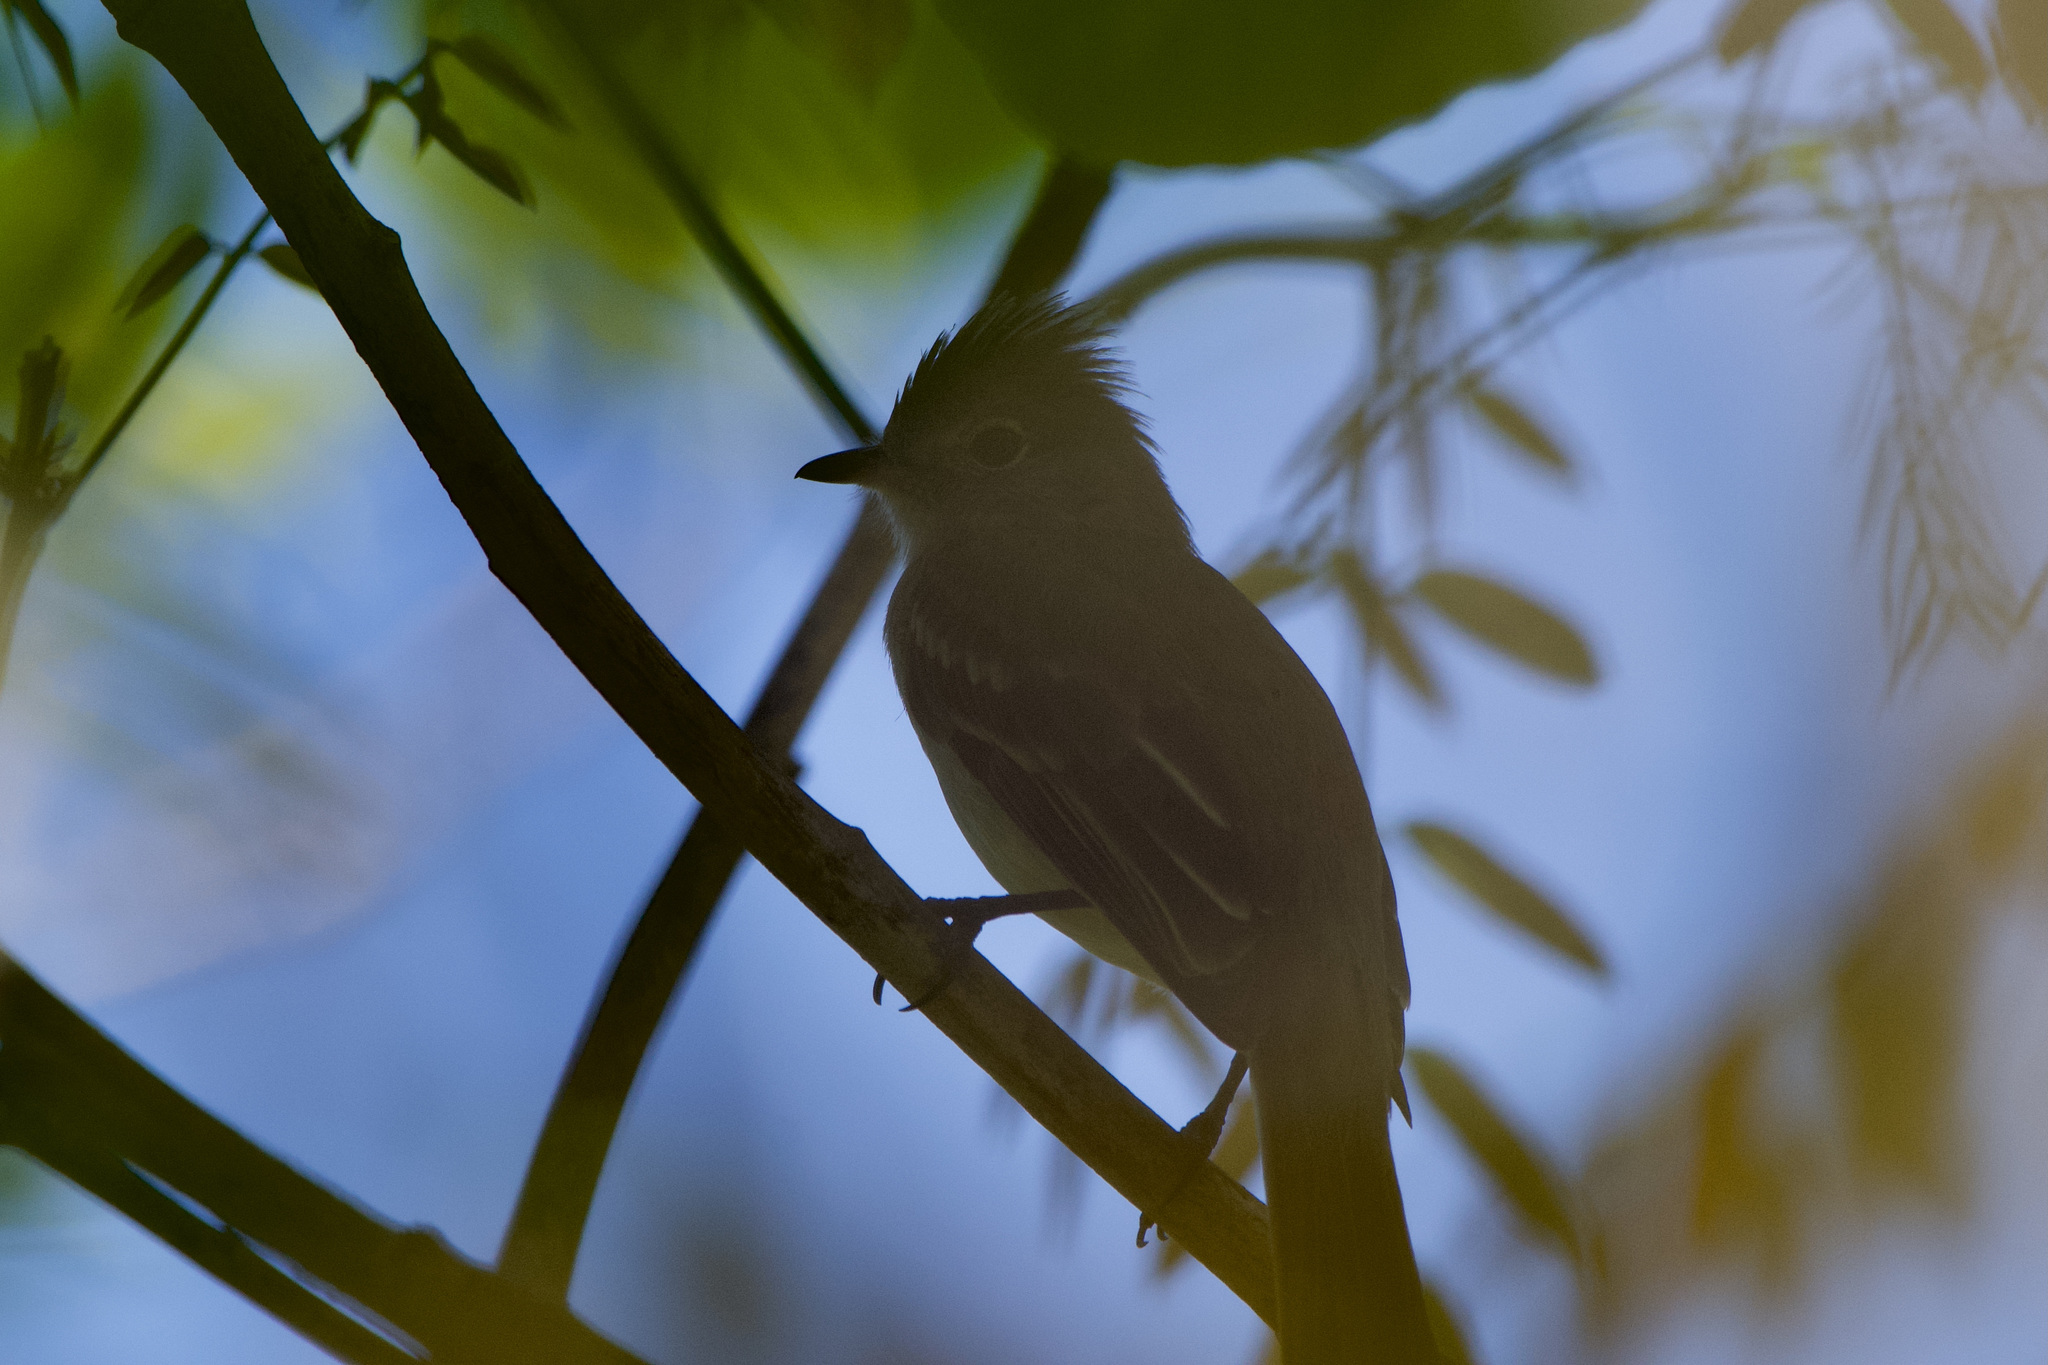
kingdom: Animalia
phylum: Chordata
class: Aves
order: Passeriformes
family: Tyrannidae
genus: Elaenia
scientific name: Elaenia flavogaster
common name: Yellow-bellied elaenia
